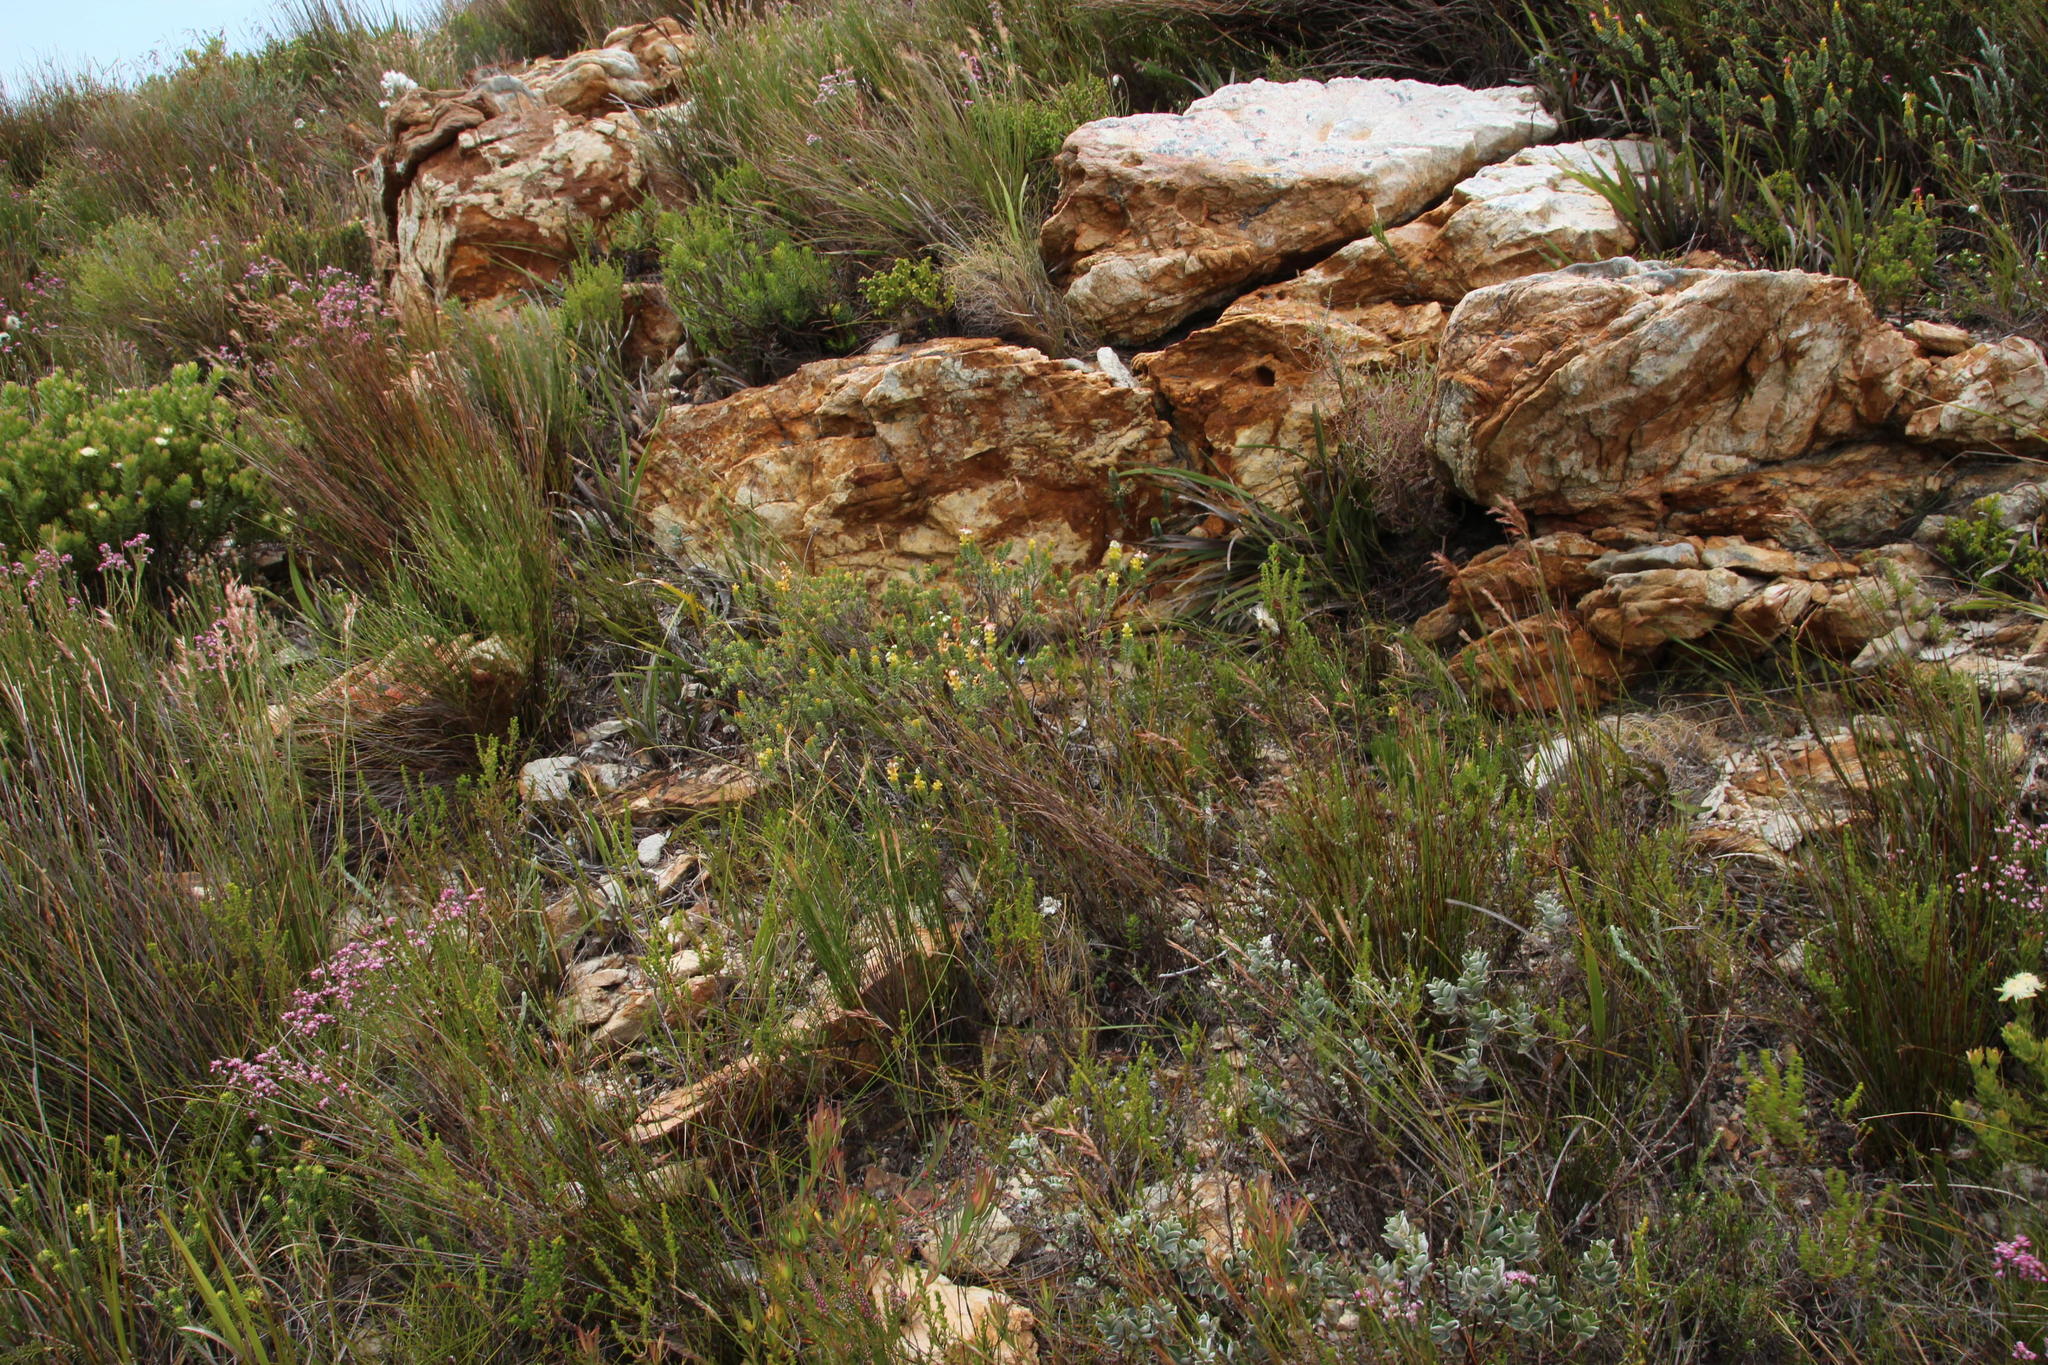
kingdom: Plantae
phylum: Tracheophyta
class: Magnoliopsida
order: Myrtales
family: Penaeaceae
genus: Saltera
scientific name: Saltera sarcocolla
